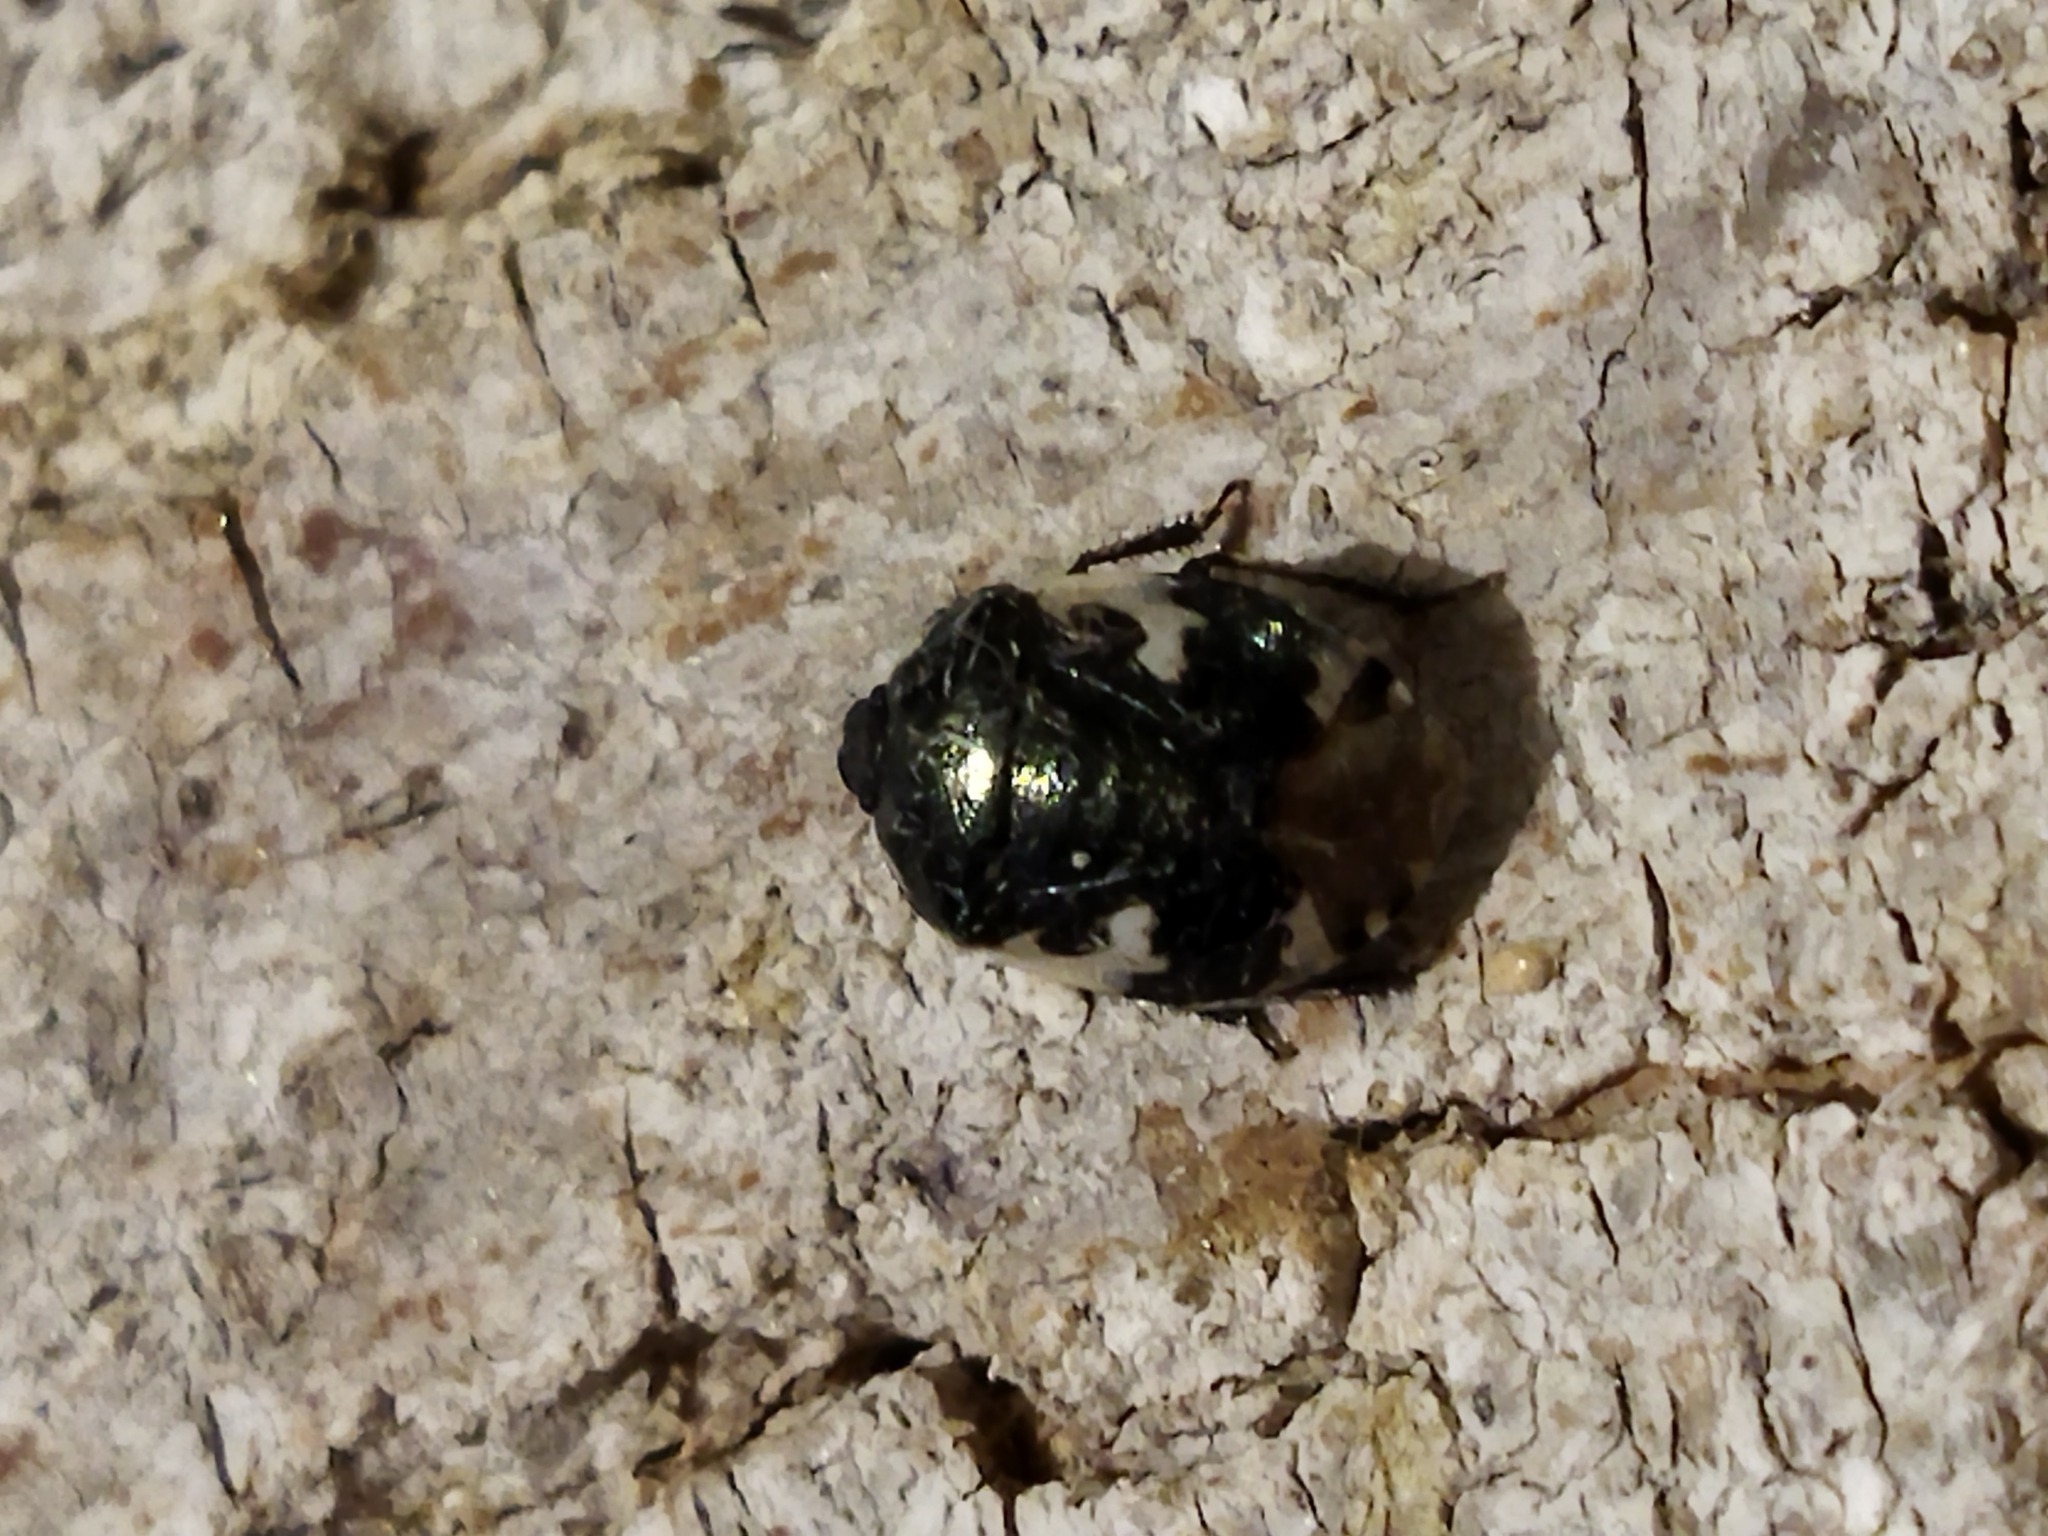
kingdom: Animalia
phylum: Arthropoda
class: Insecta
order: Hemiptera
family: Cydnidae
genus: Tritomegas
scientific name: Tritomegas bicolor
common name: Pied shieldbug
